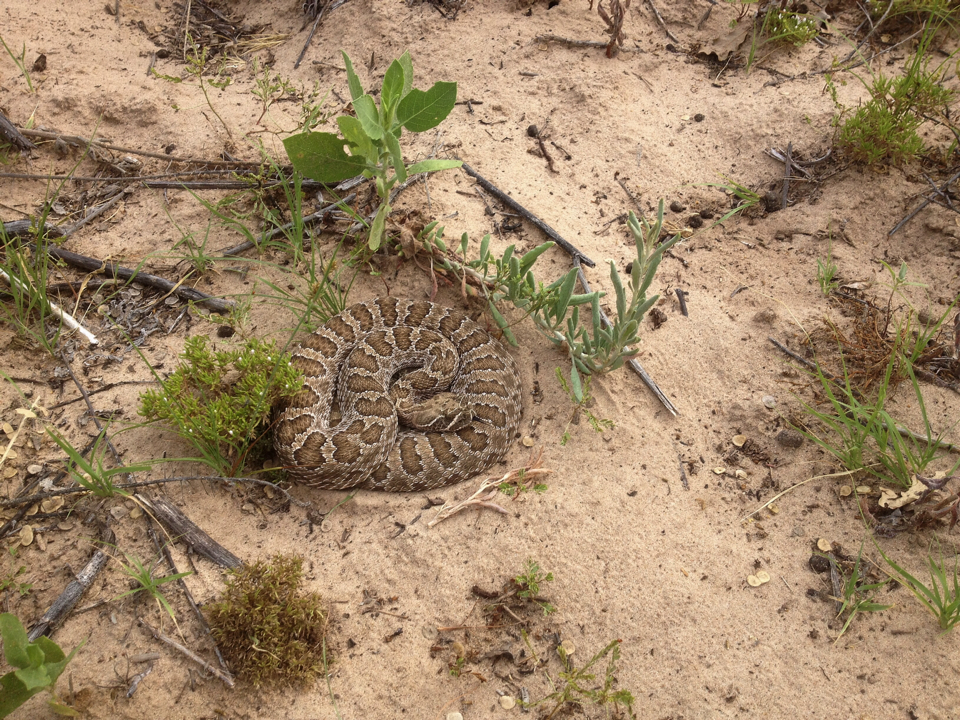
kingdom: Animalia
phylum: Chordata
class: Squamata
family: Viperidae
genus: Crotalus
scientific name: Crotalus viridis
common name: Prairie rattlesnake
